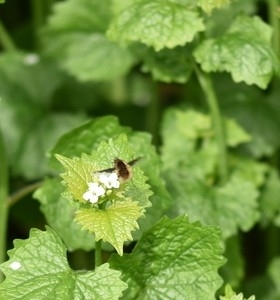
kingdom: Animalia
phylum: Arthropoda
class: Insecta
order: Diptera
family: Bombyliidae
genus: Bombylius
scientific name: Bombylius major
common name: Bee fly
